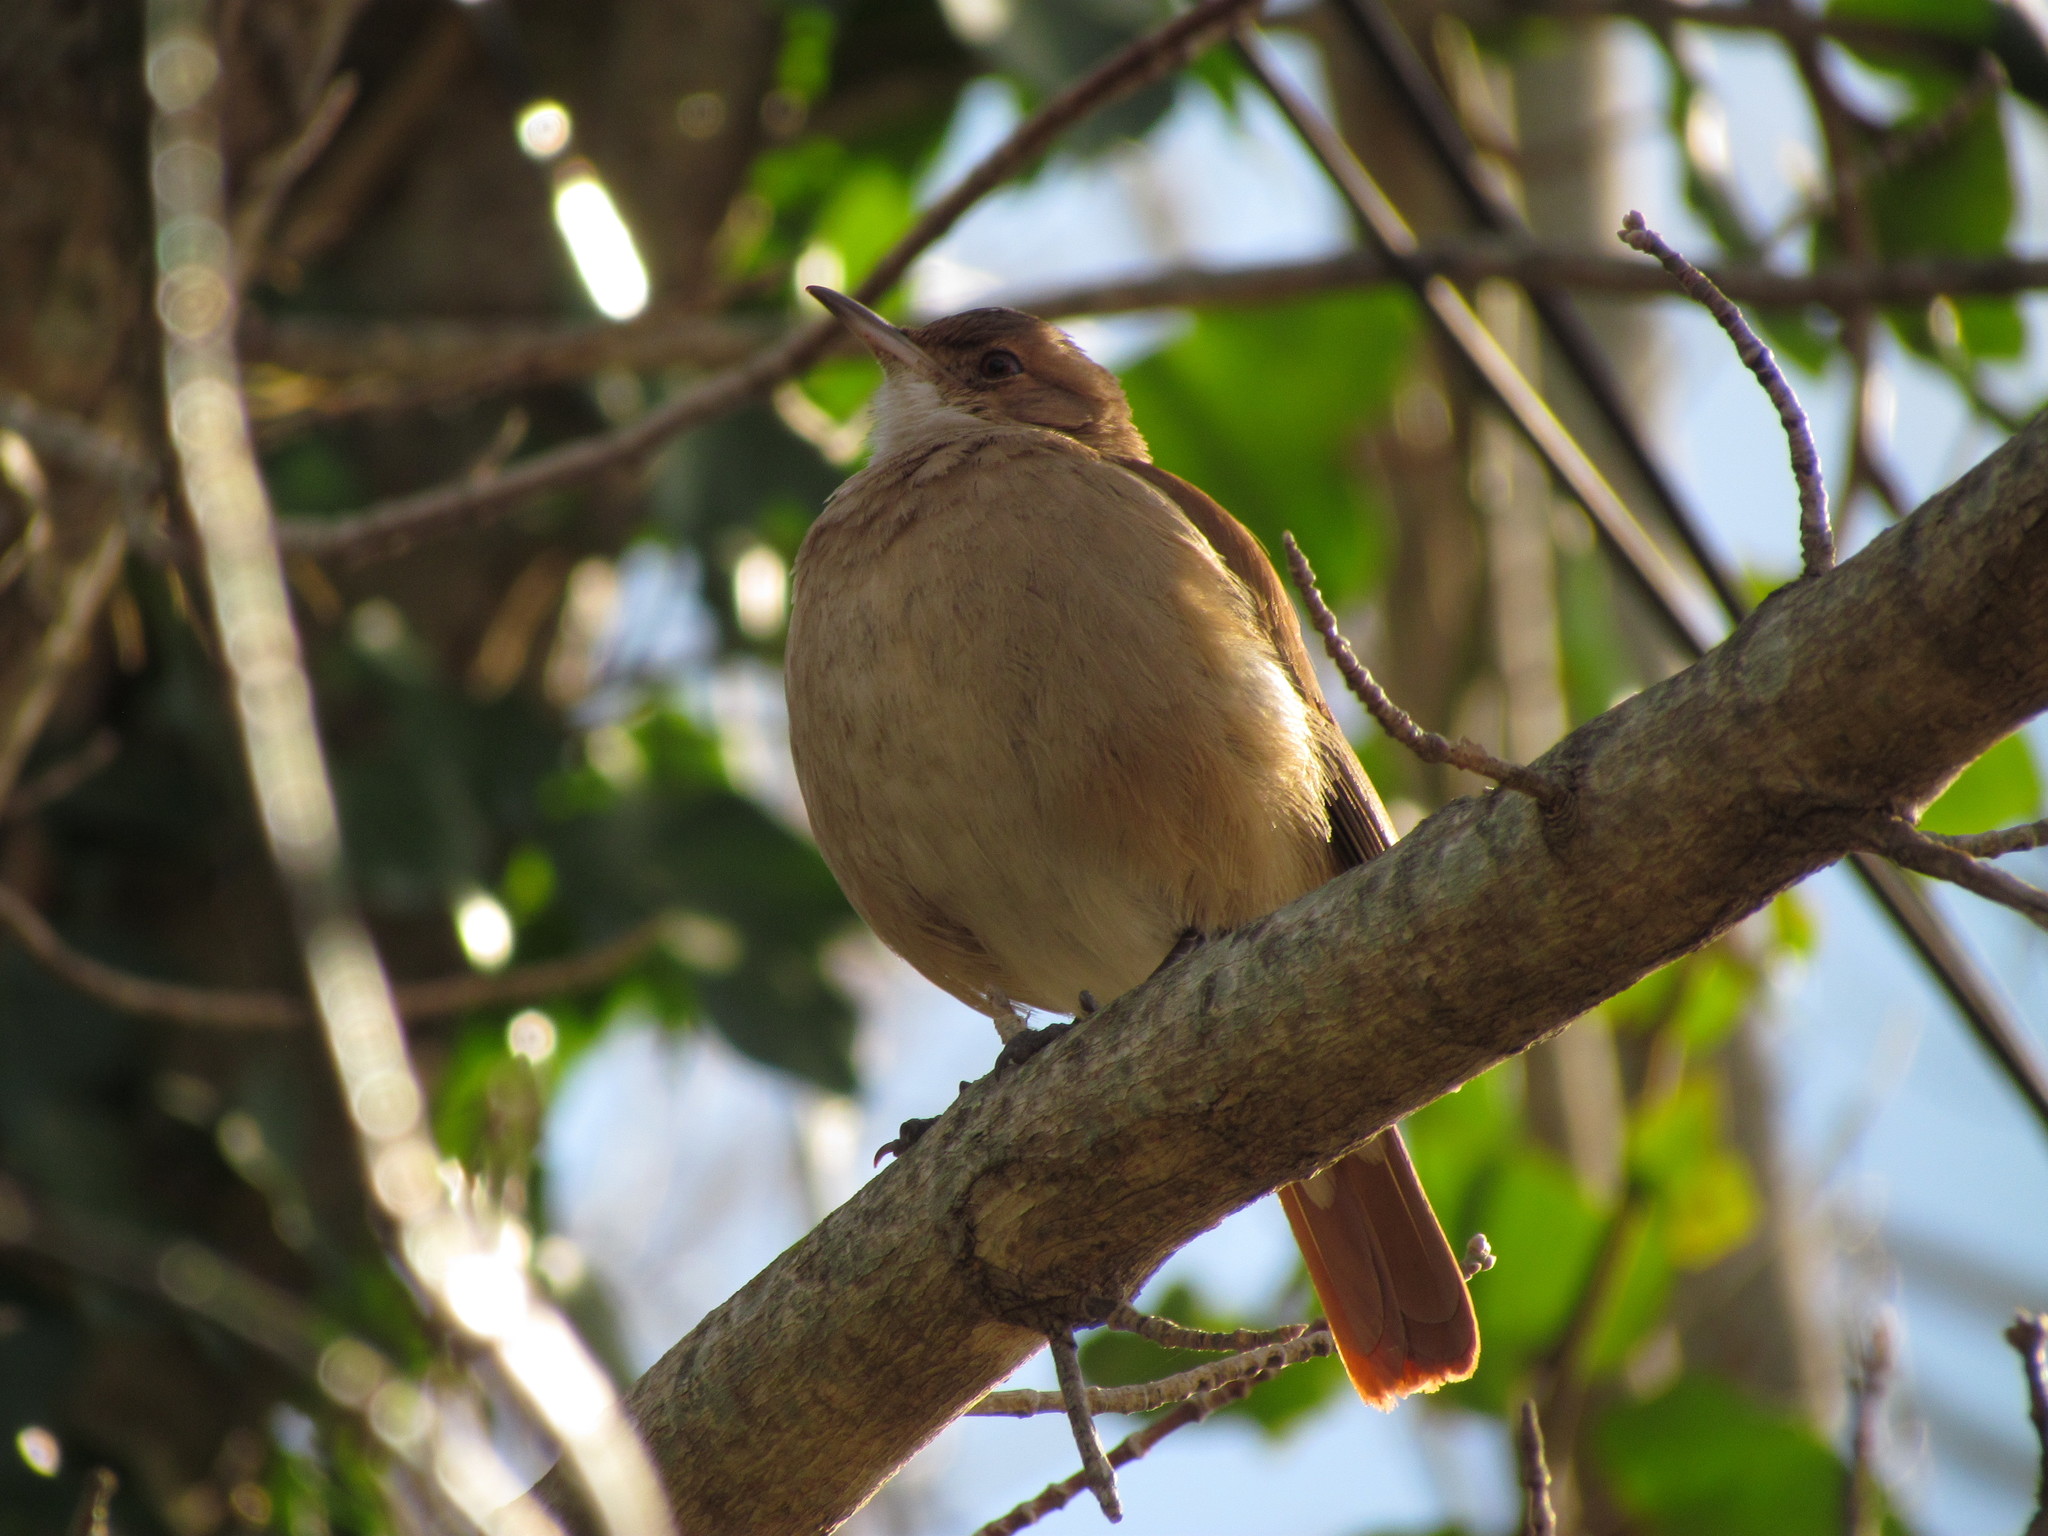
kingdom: Animalia
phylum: Chordata
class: Aves
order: Passeriformes
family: Furnariidae
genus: Furnarius
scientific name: Furnarius rufus
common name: Rufous hornero
